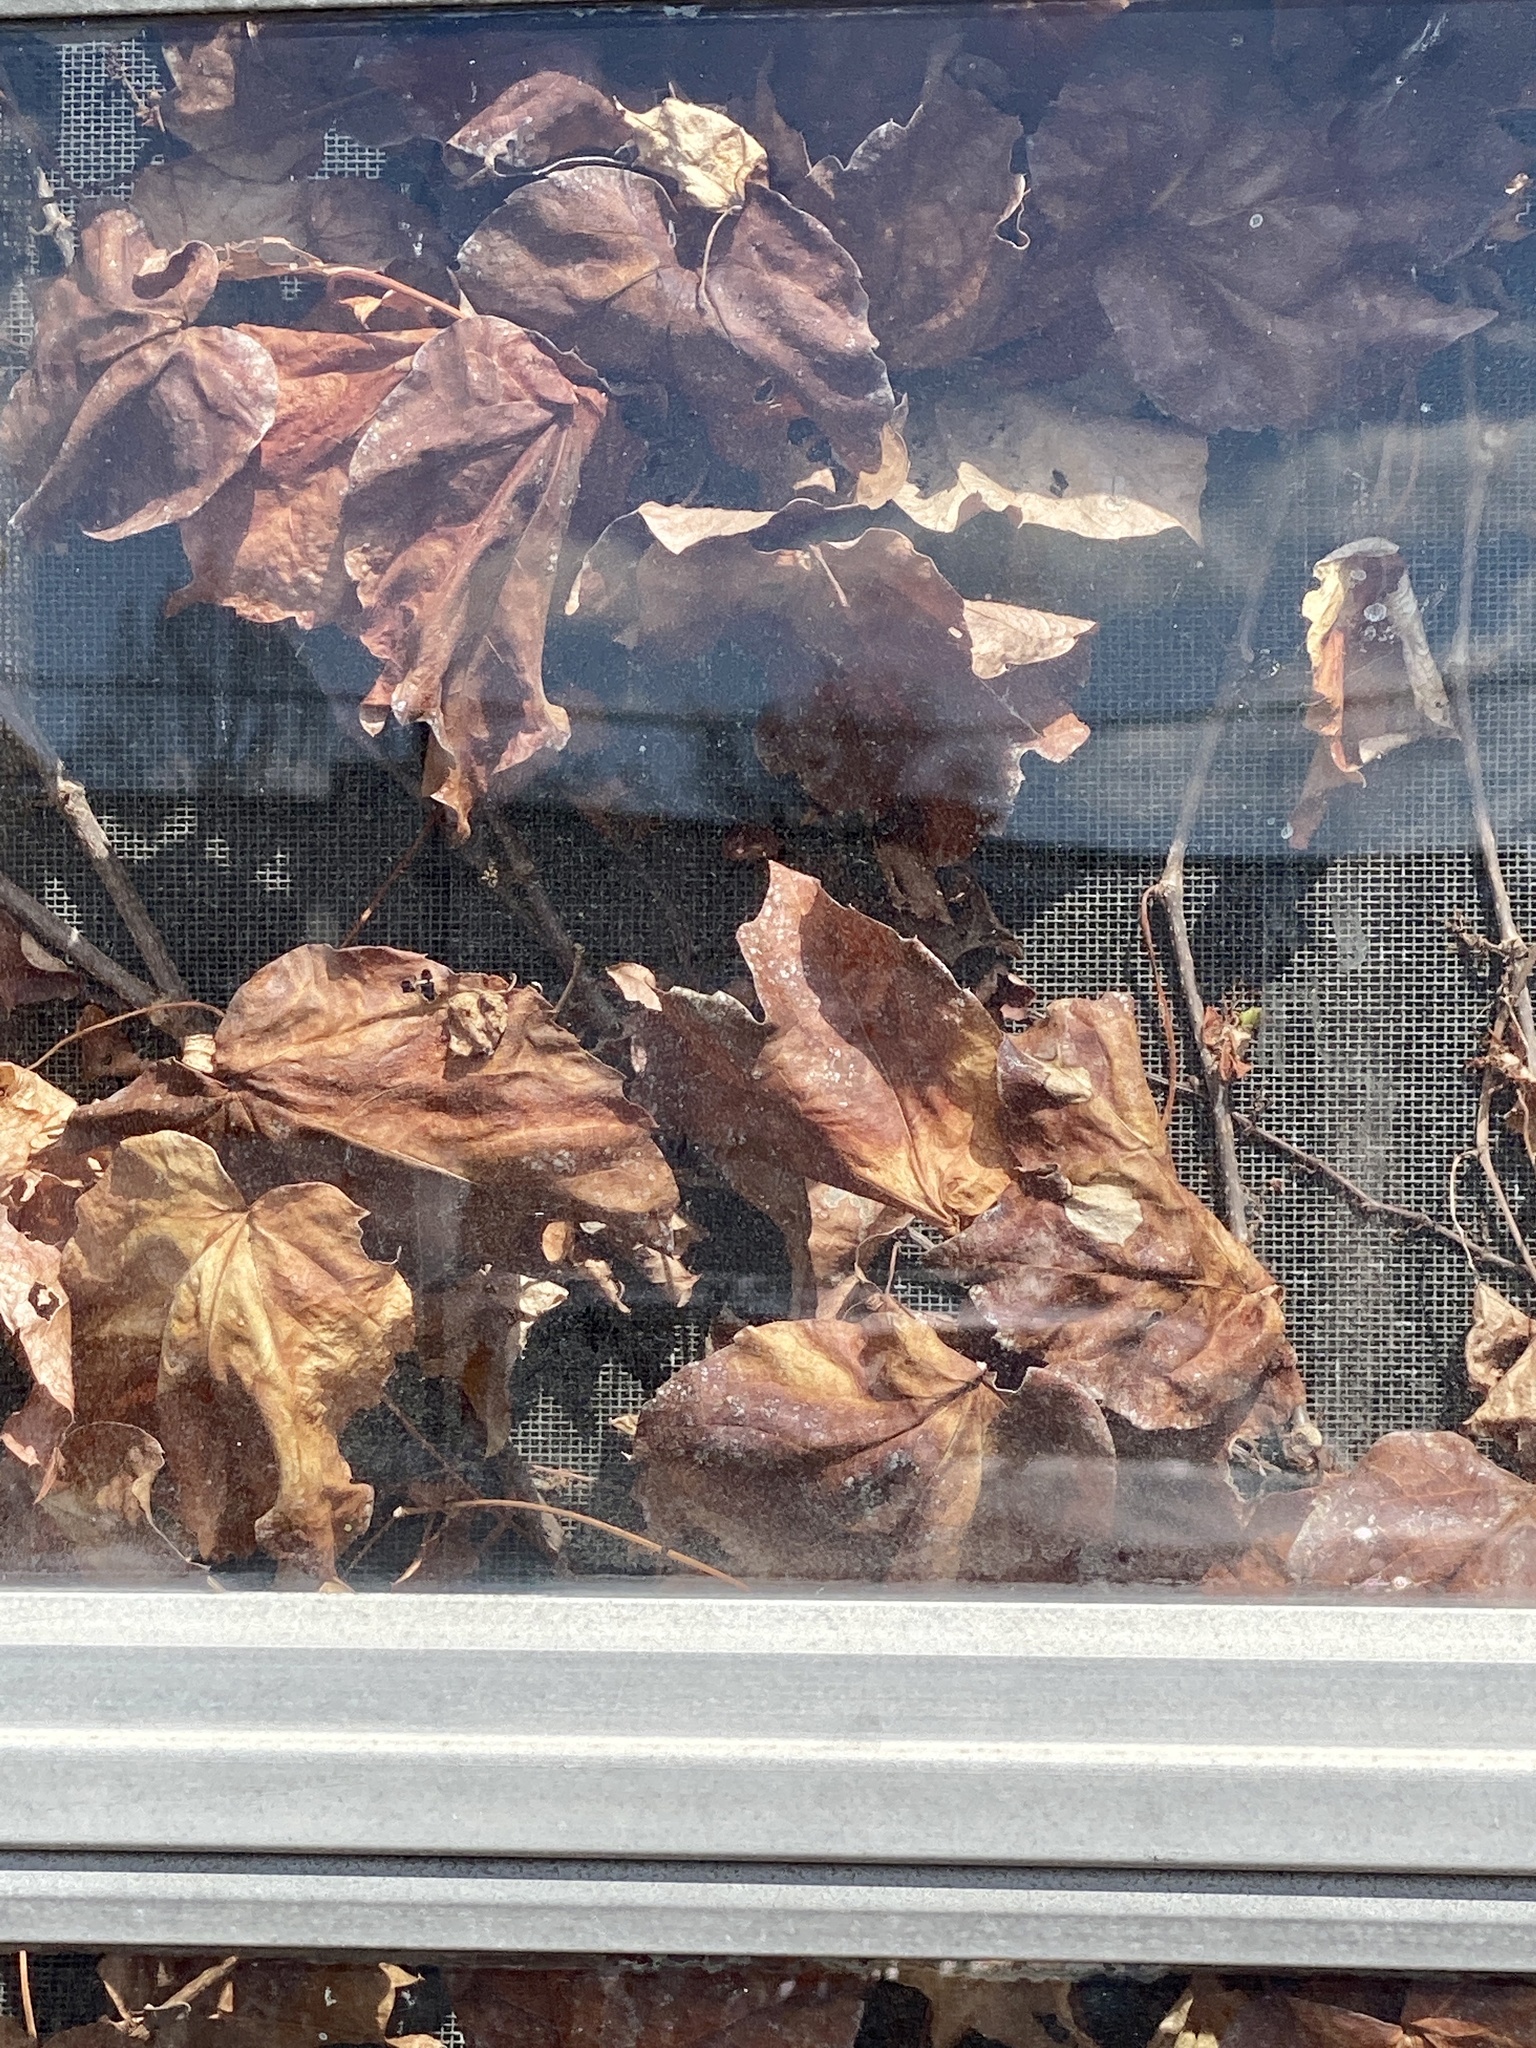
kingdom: Plantae
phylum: Tracheophyta
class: Magnoliopsida
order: Vitales
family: Vitaceae
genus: Parthenocissus
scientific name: Parthenocissus tricuspidata
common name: Boston ivy
